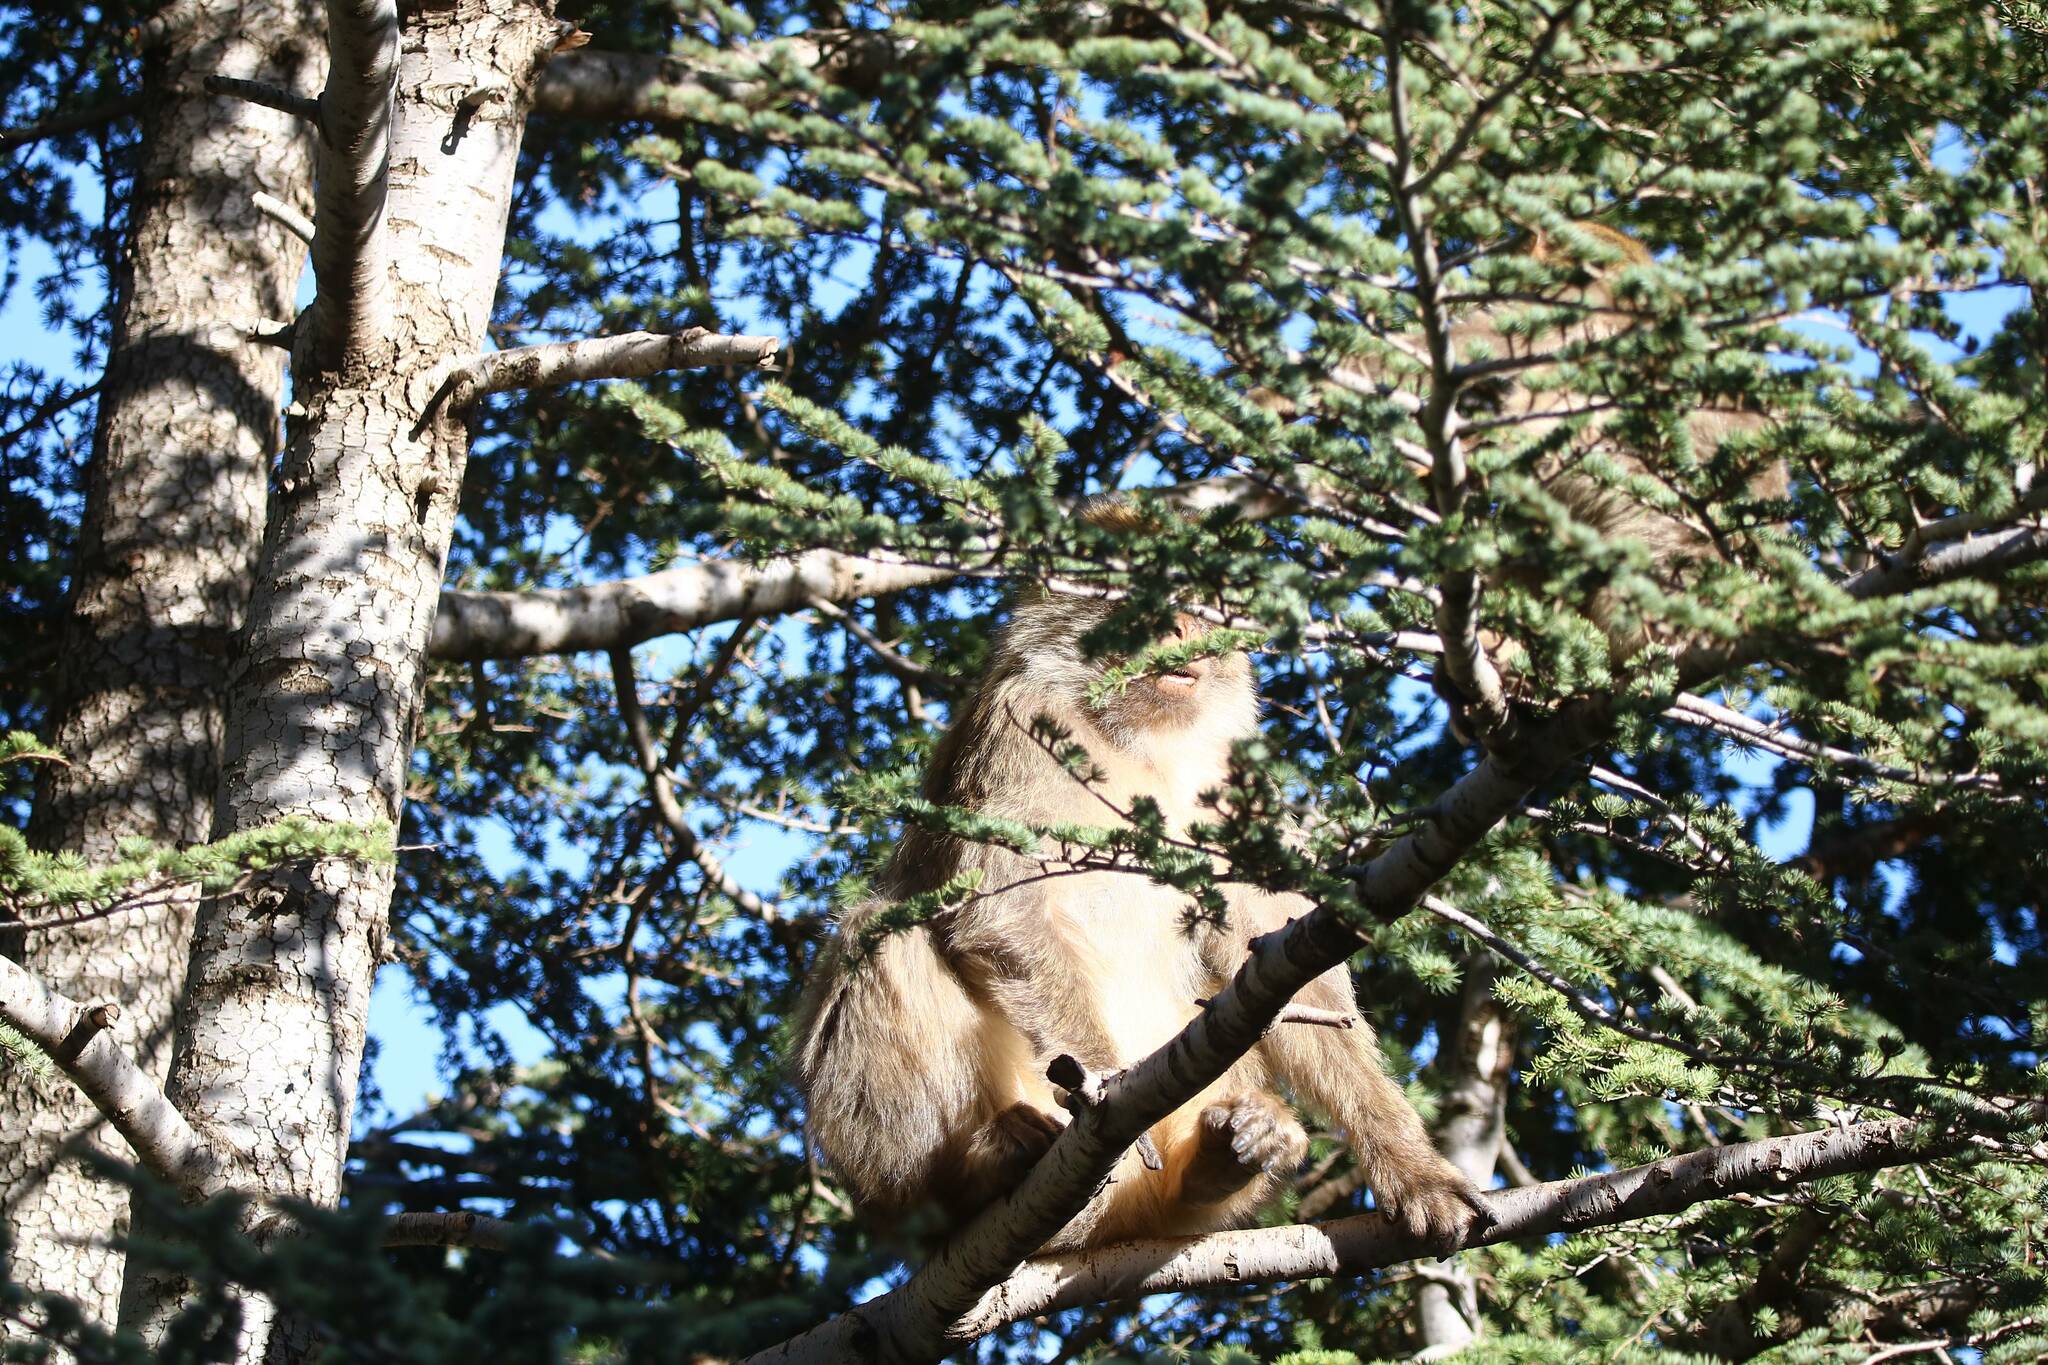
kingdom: Animalia
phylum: Chordata
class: Mammalia
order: Primates
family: Cercopithecidae
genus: Macaca
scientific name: Macaca sylvanus
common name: Barbary macaque
